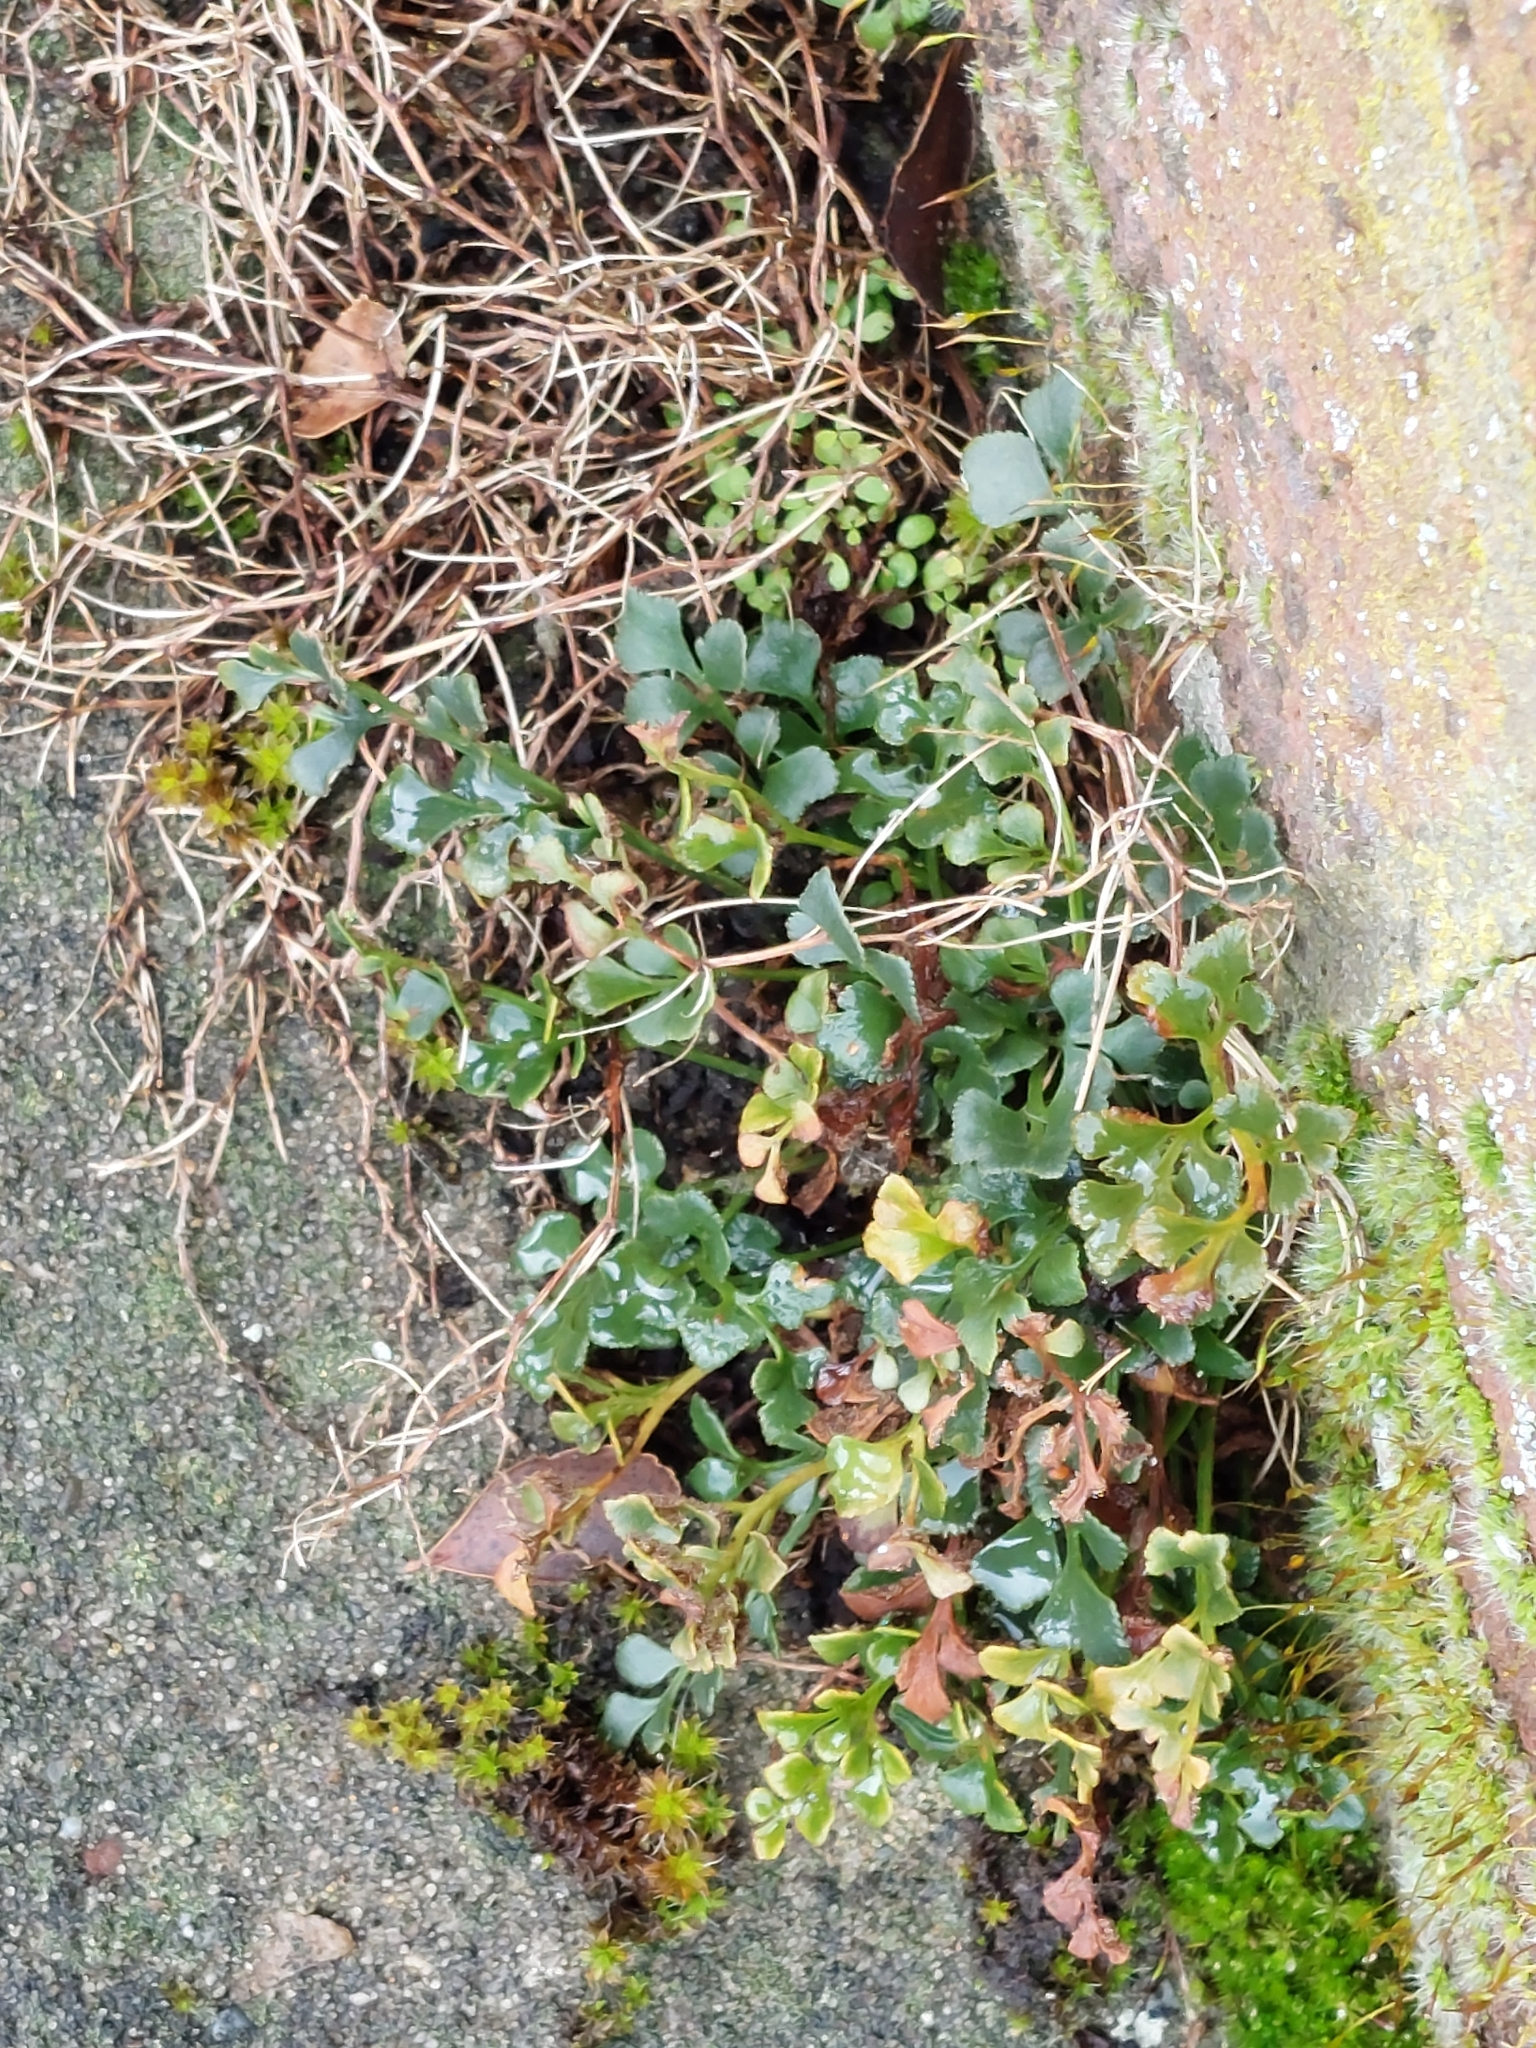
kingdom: Plantae
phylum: Tracheophyta
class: Polypodiopsida
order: Polypodiales
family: Aspleniaceae
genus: Asplenium
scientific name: Asplenium ruta-muraria
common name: Wall-rue
